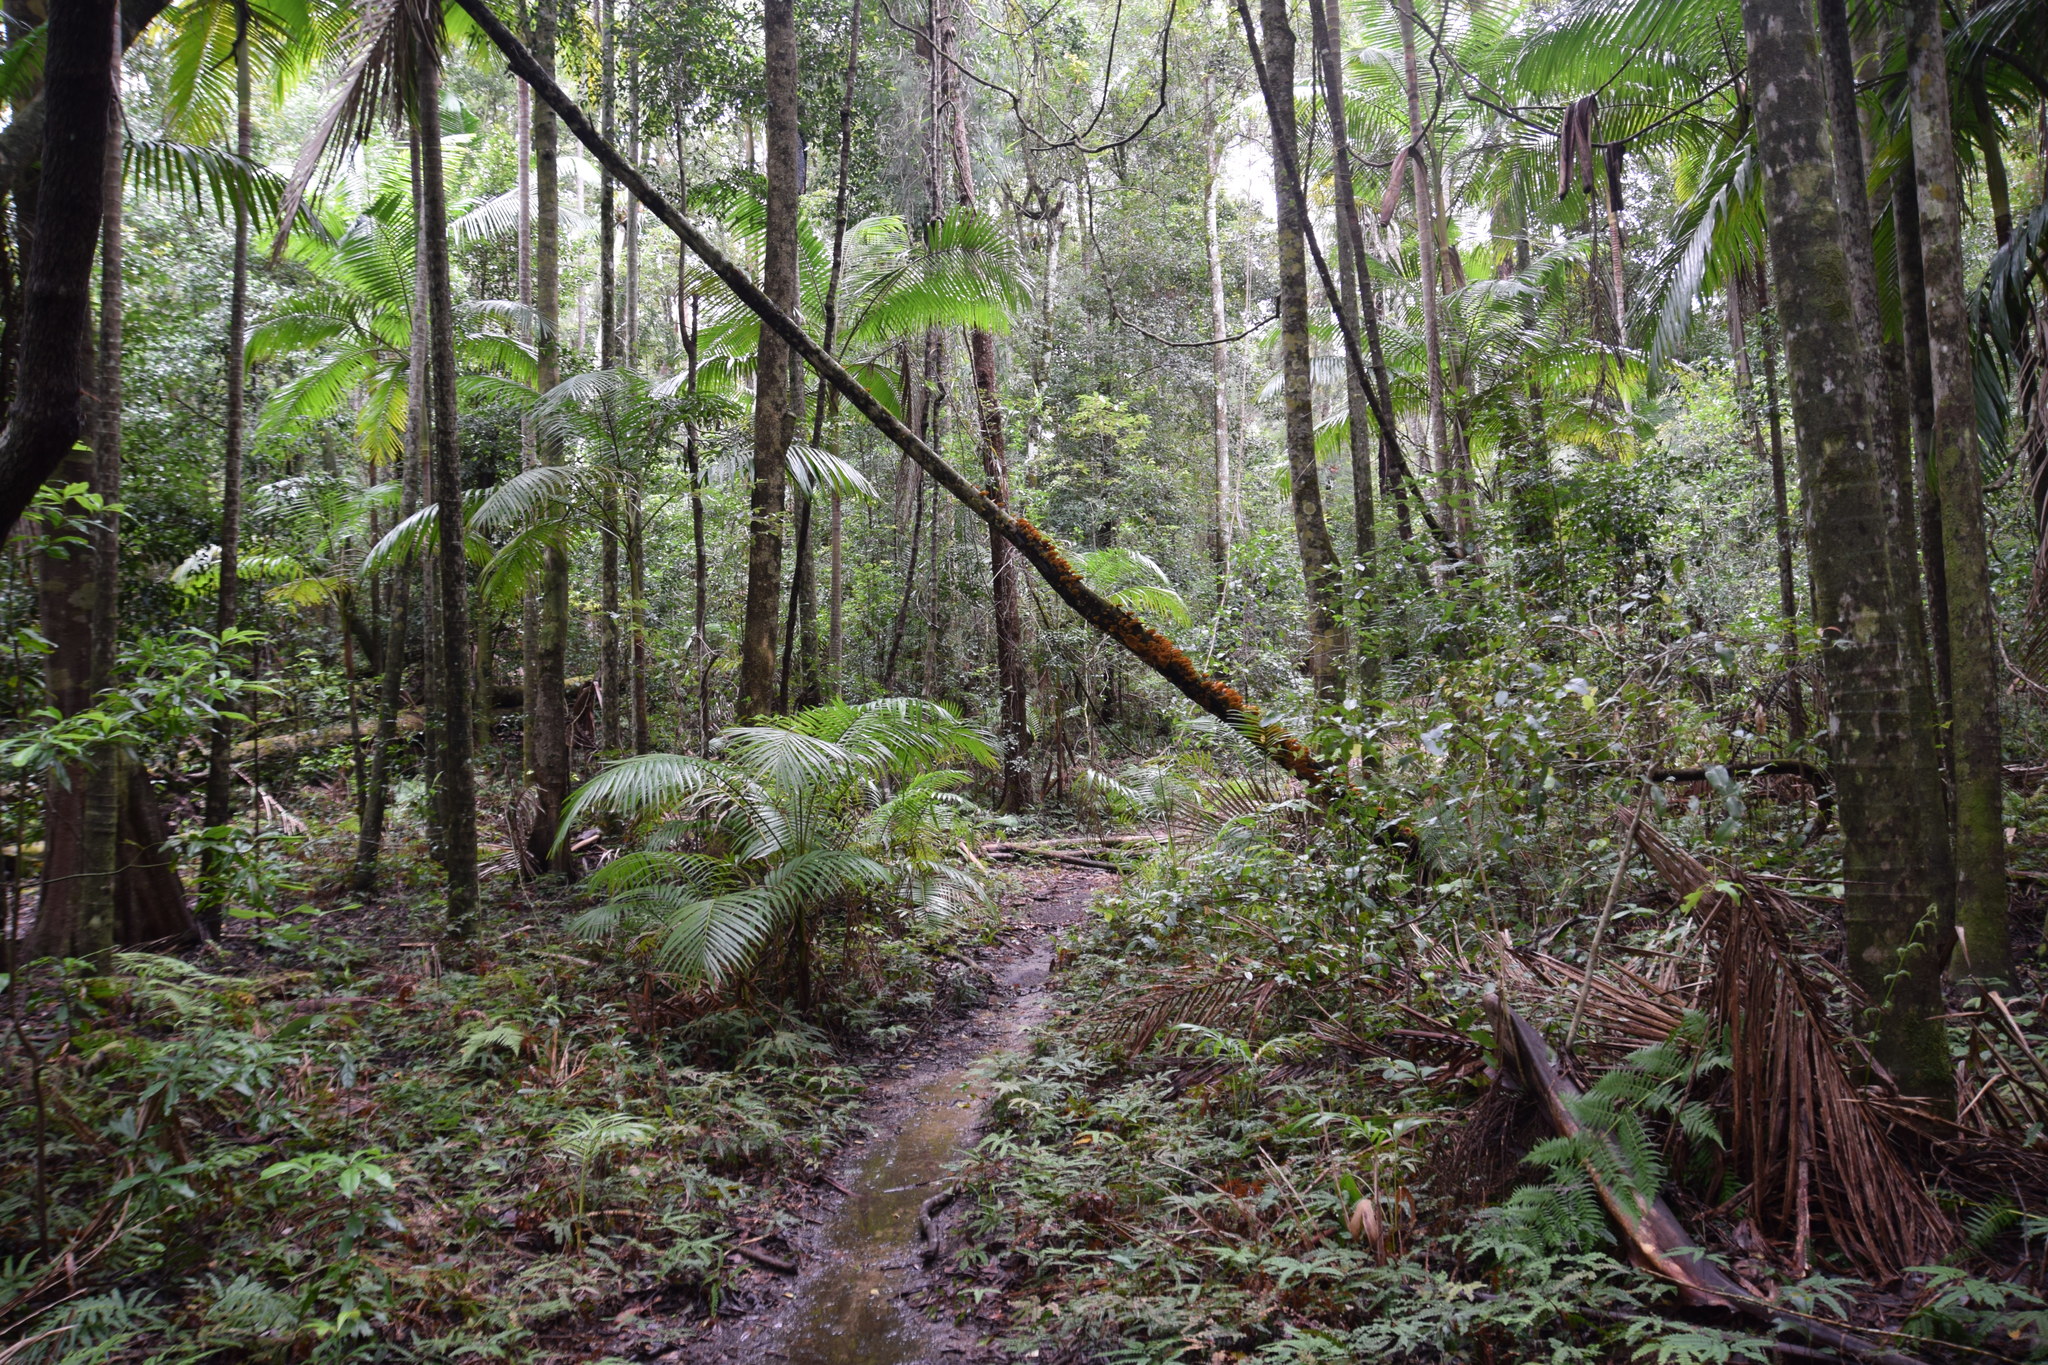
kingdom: Plantae
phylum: Tracheophyta
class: Liliopsida
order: Arecales
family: Arecaceae
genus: Archontophoenix
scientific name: Archontophoenix cunninghamiana
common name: Piccabeen bangalow palm
